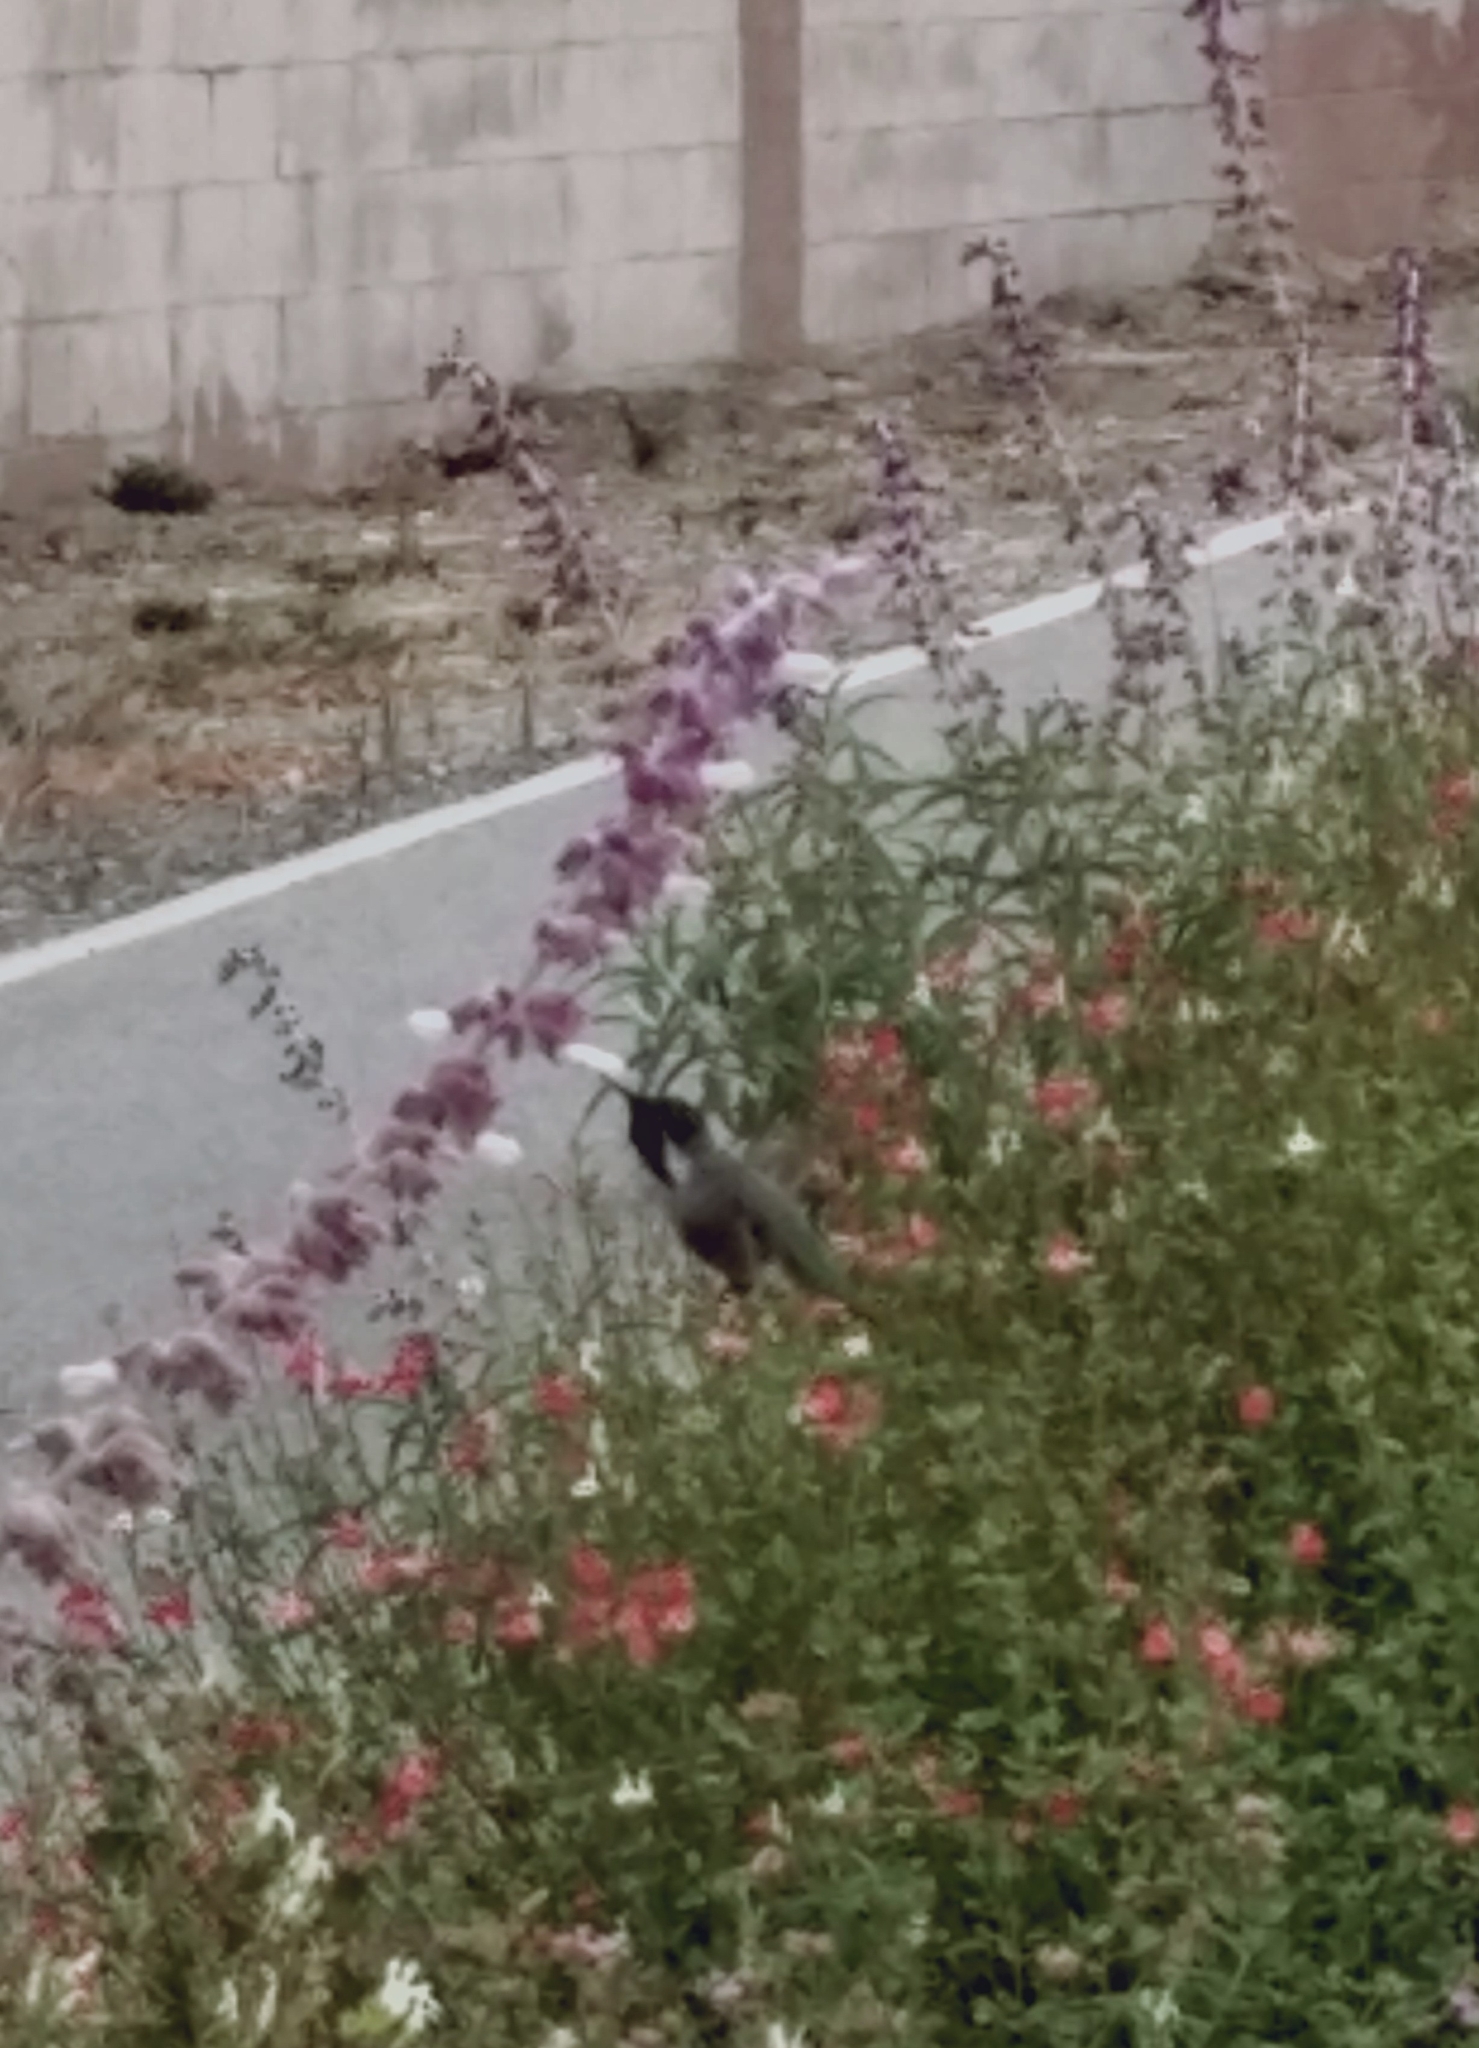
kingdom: Animalia
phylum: Chordata
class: Aves
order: Apodiformes
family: Trochilidae
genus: Calypte
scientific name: Calypte costae
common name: Costa's hummingbird
